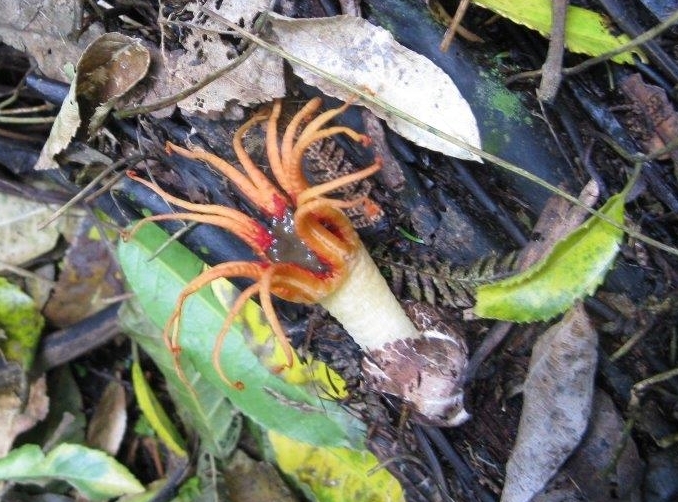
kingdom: Fungi
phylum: Basidiomycota
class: Agaricomycetes
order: Phallales
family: Phallaceae
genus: Aseroe
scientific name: Aseroe rubra
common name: Starfish fungus
